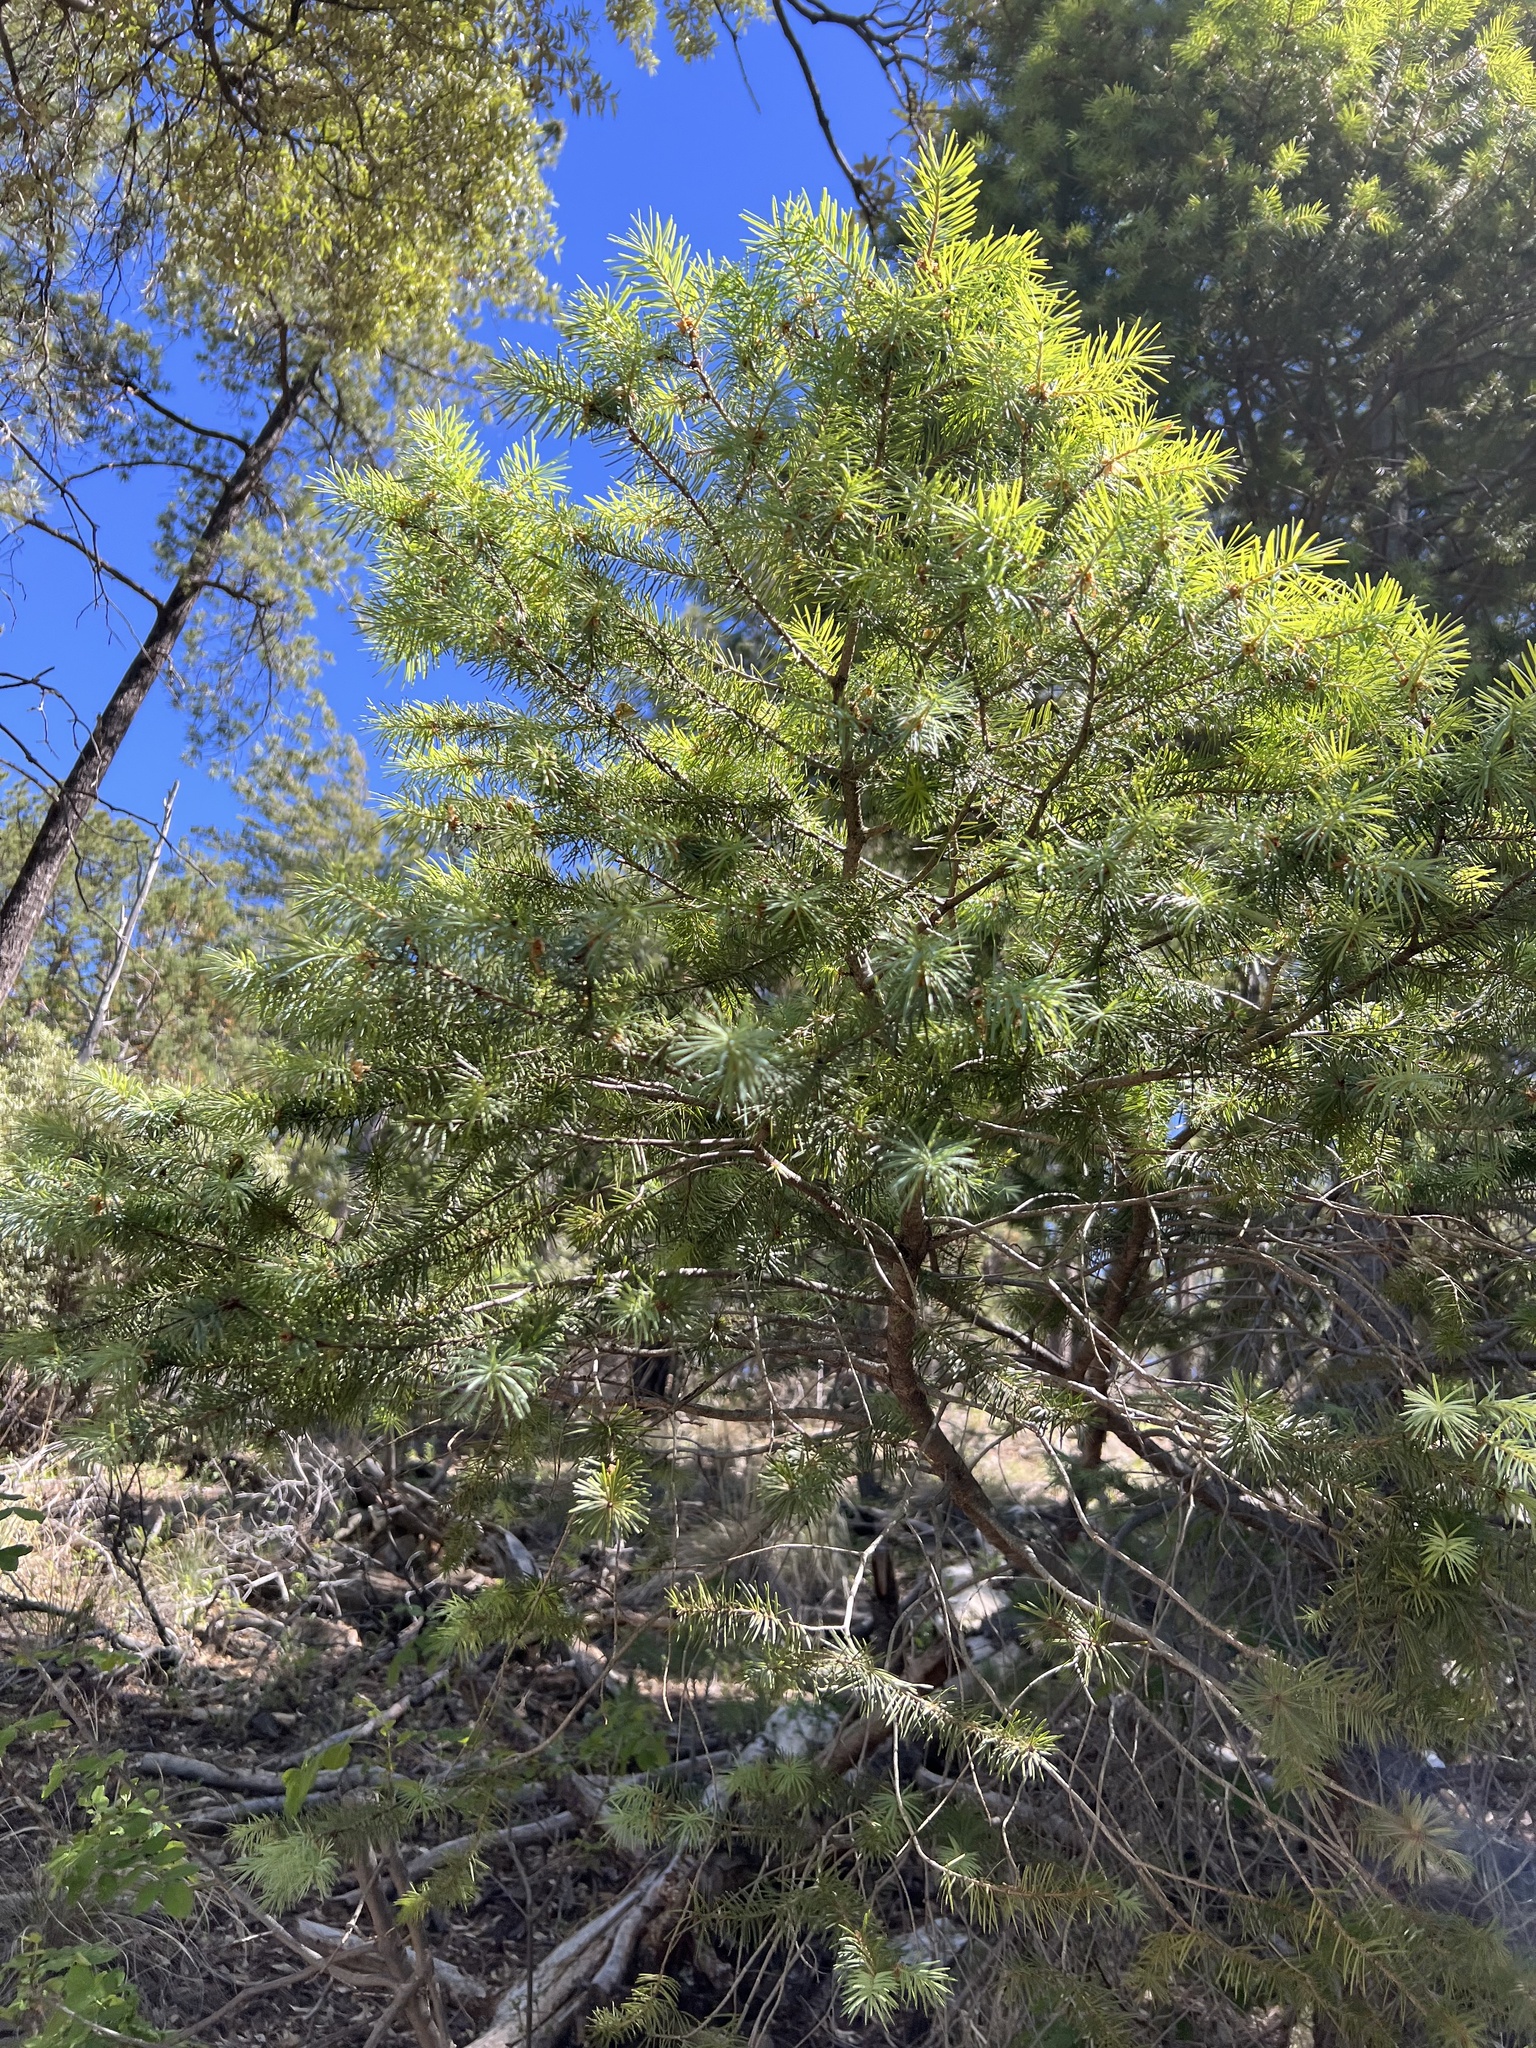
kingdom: Plantae
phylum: Tracheophyta
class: Pinopsida
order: Pinales
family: Pinaceae
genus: Pseudotsuga
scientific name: Pseudotsuga menziesii
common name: Douglas fir
